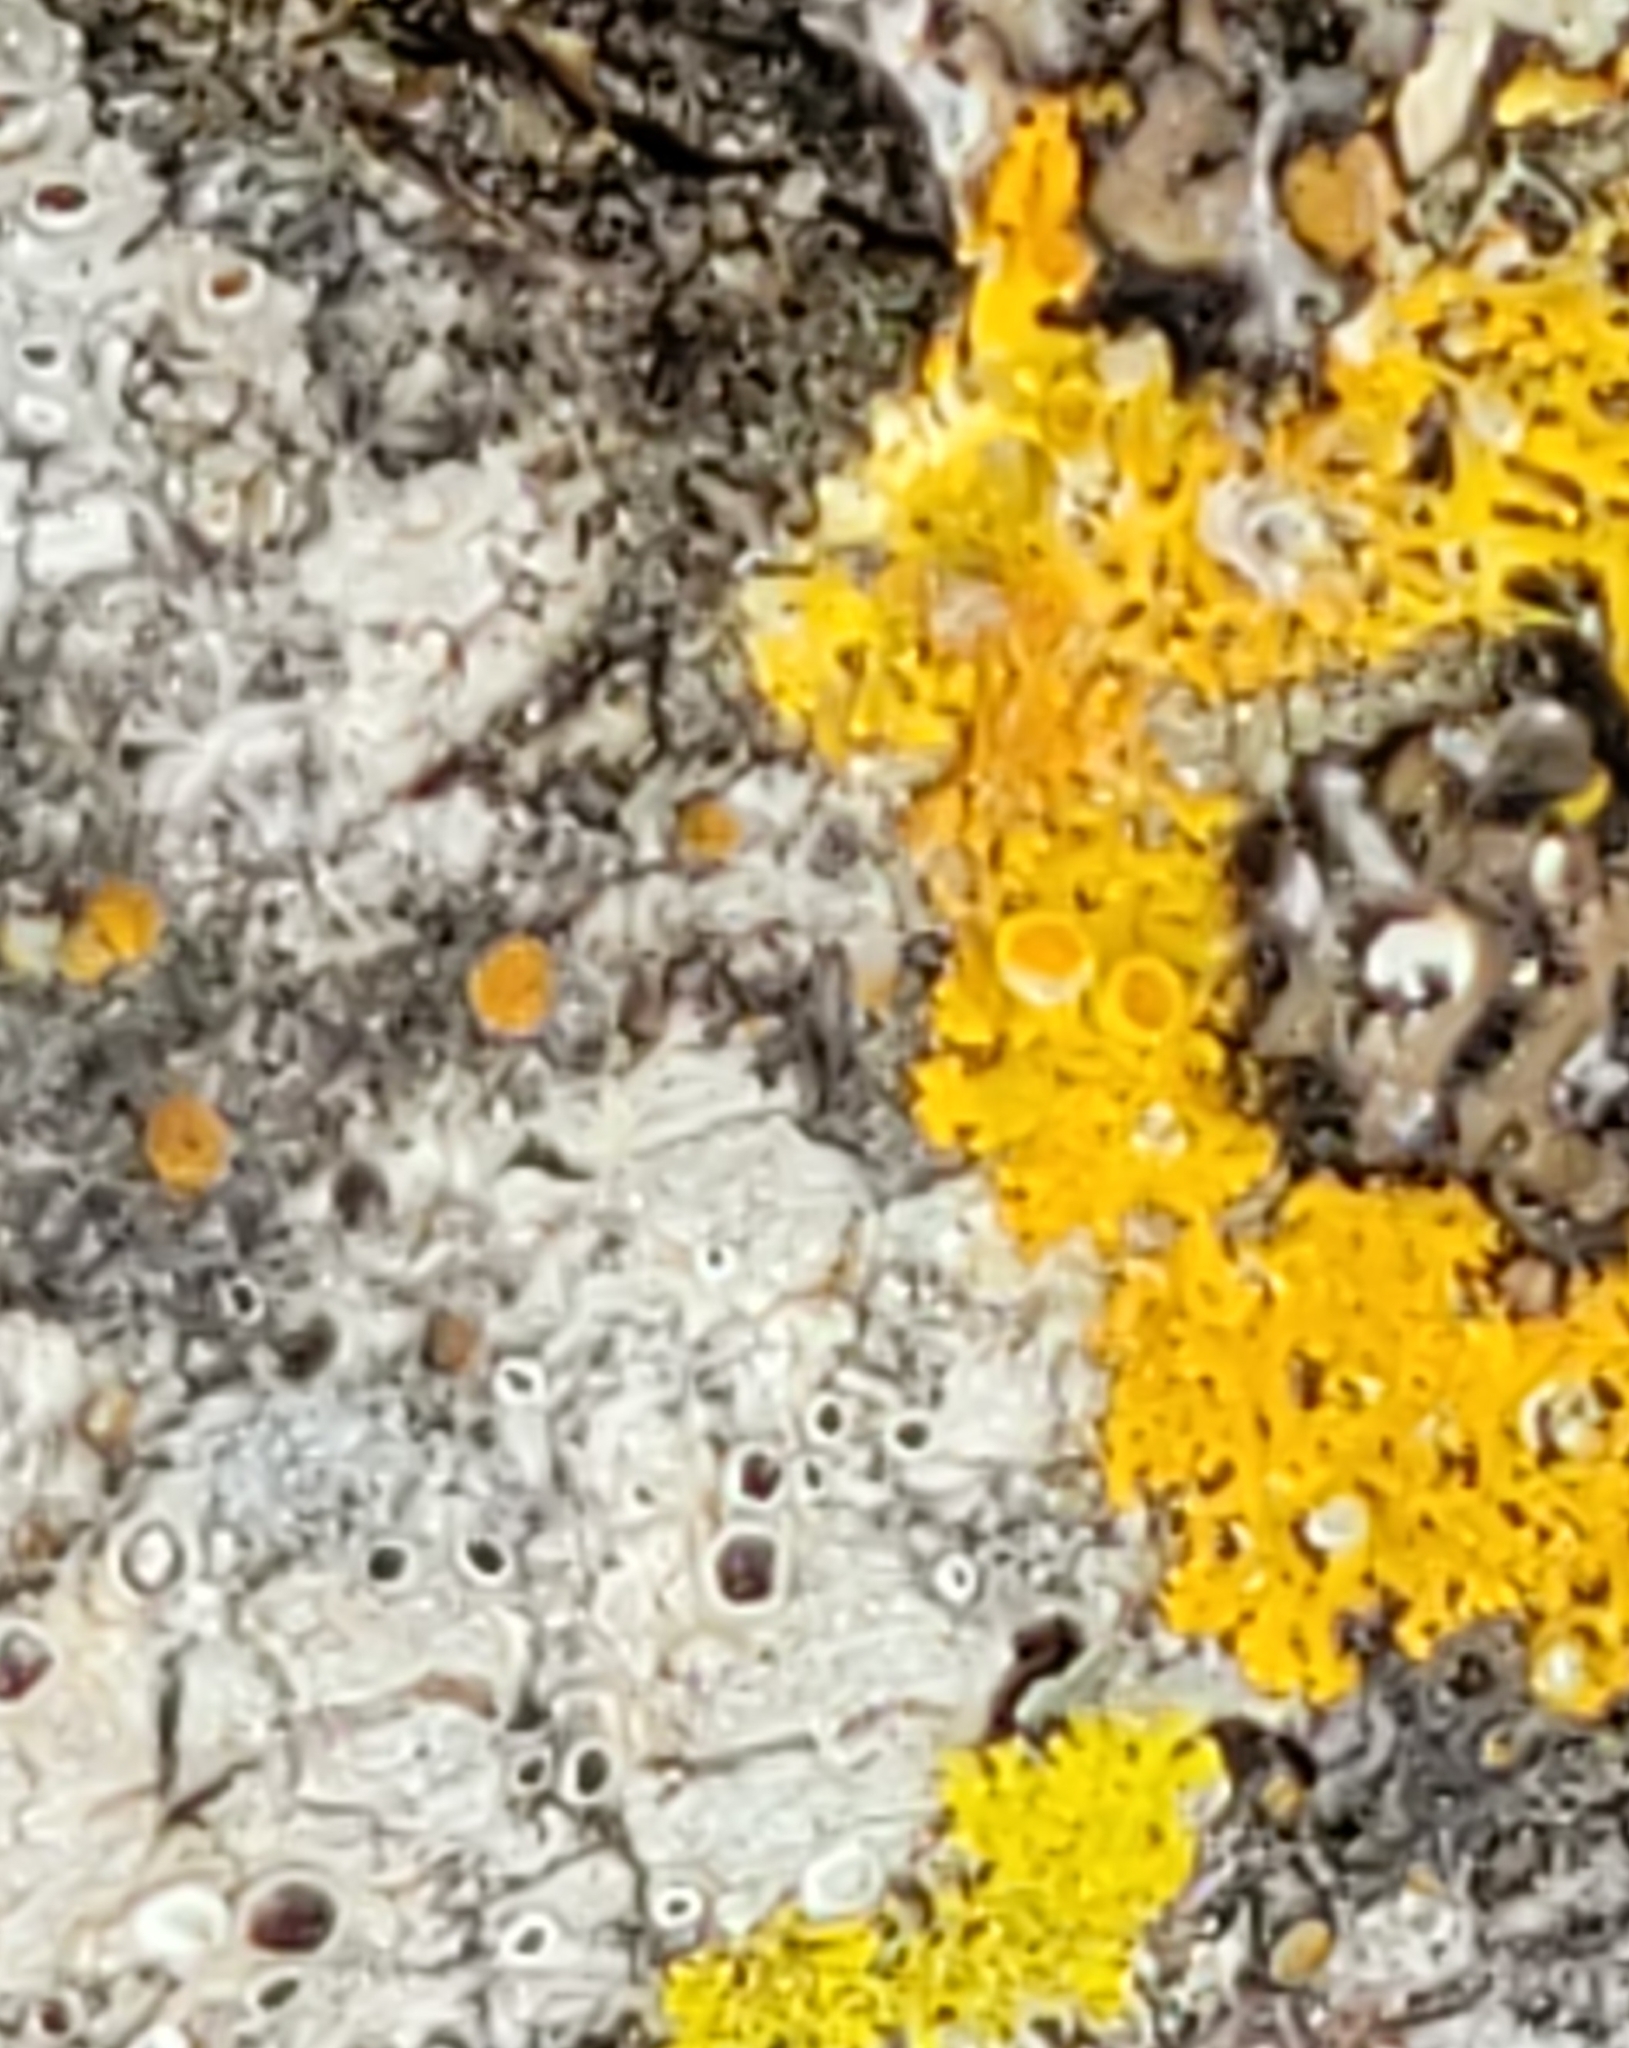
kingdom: Fungi
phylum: Ascomycota
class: Lecanoromycetes
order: Teloschistales
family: Teloschistaceae
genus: Gallowayella
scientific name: Gallowayella hasseana
